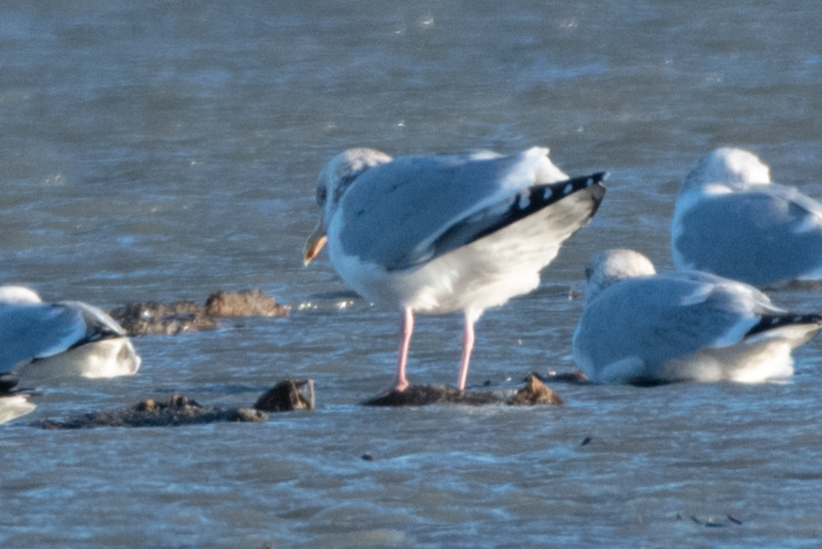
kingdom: Animalia
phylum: Chordata
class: Aves
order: Charadriiformes
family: Laridae
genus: Larus
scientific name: Larus argentatus
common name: Herring gull
